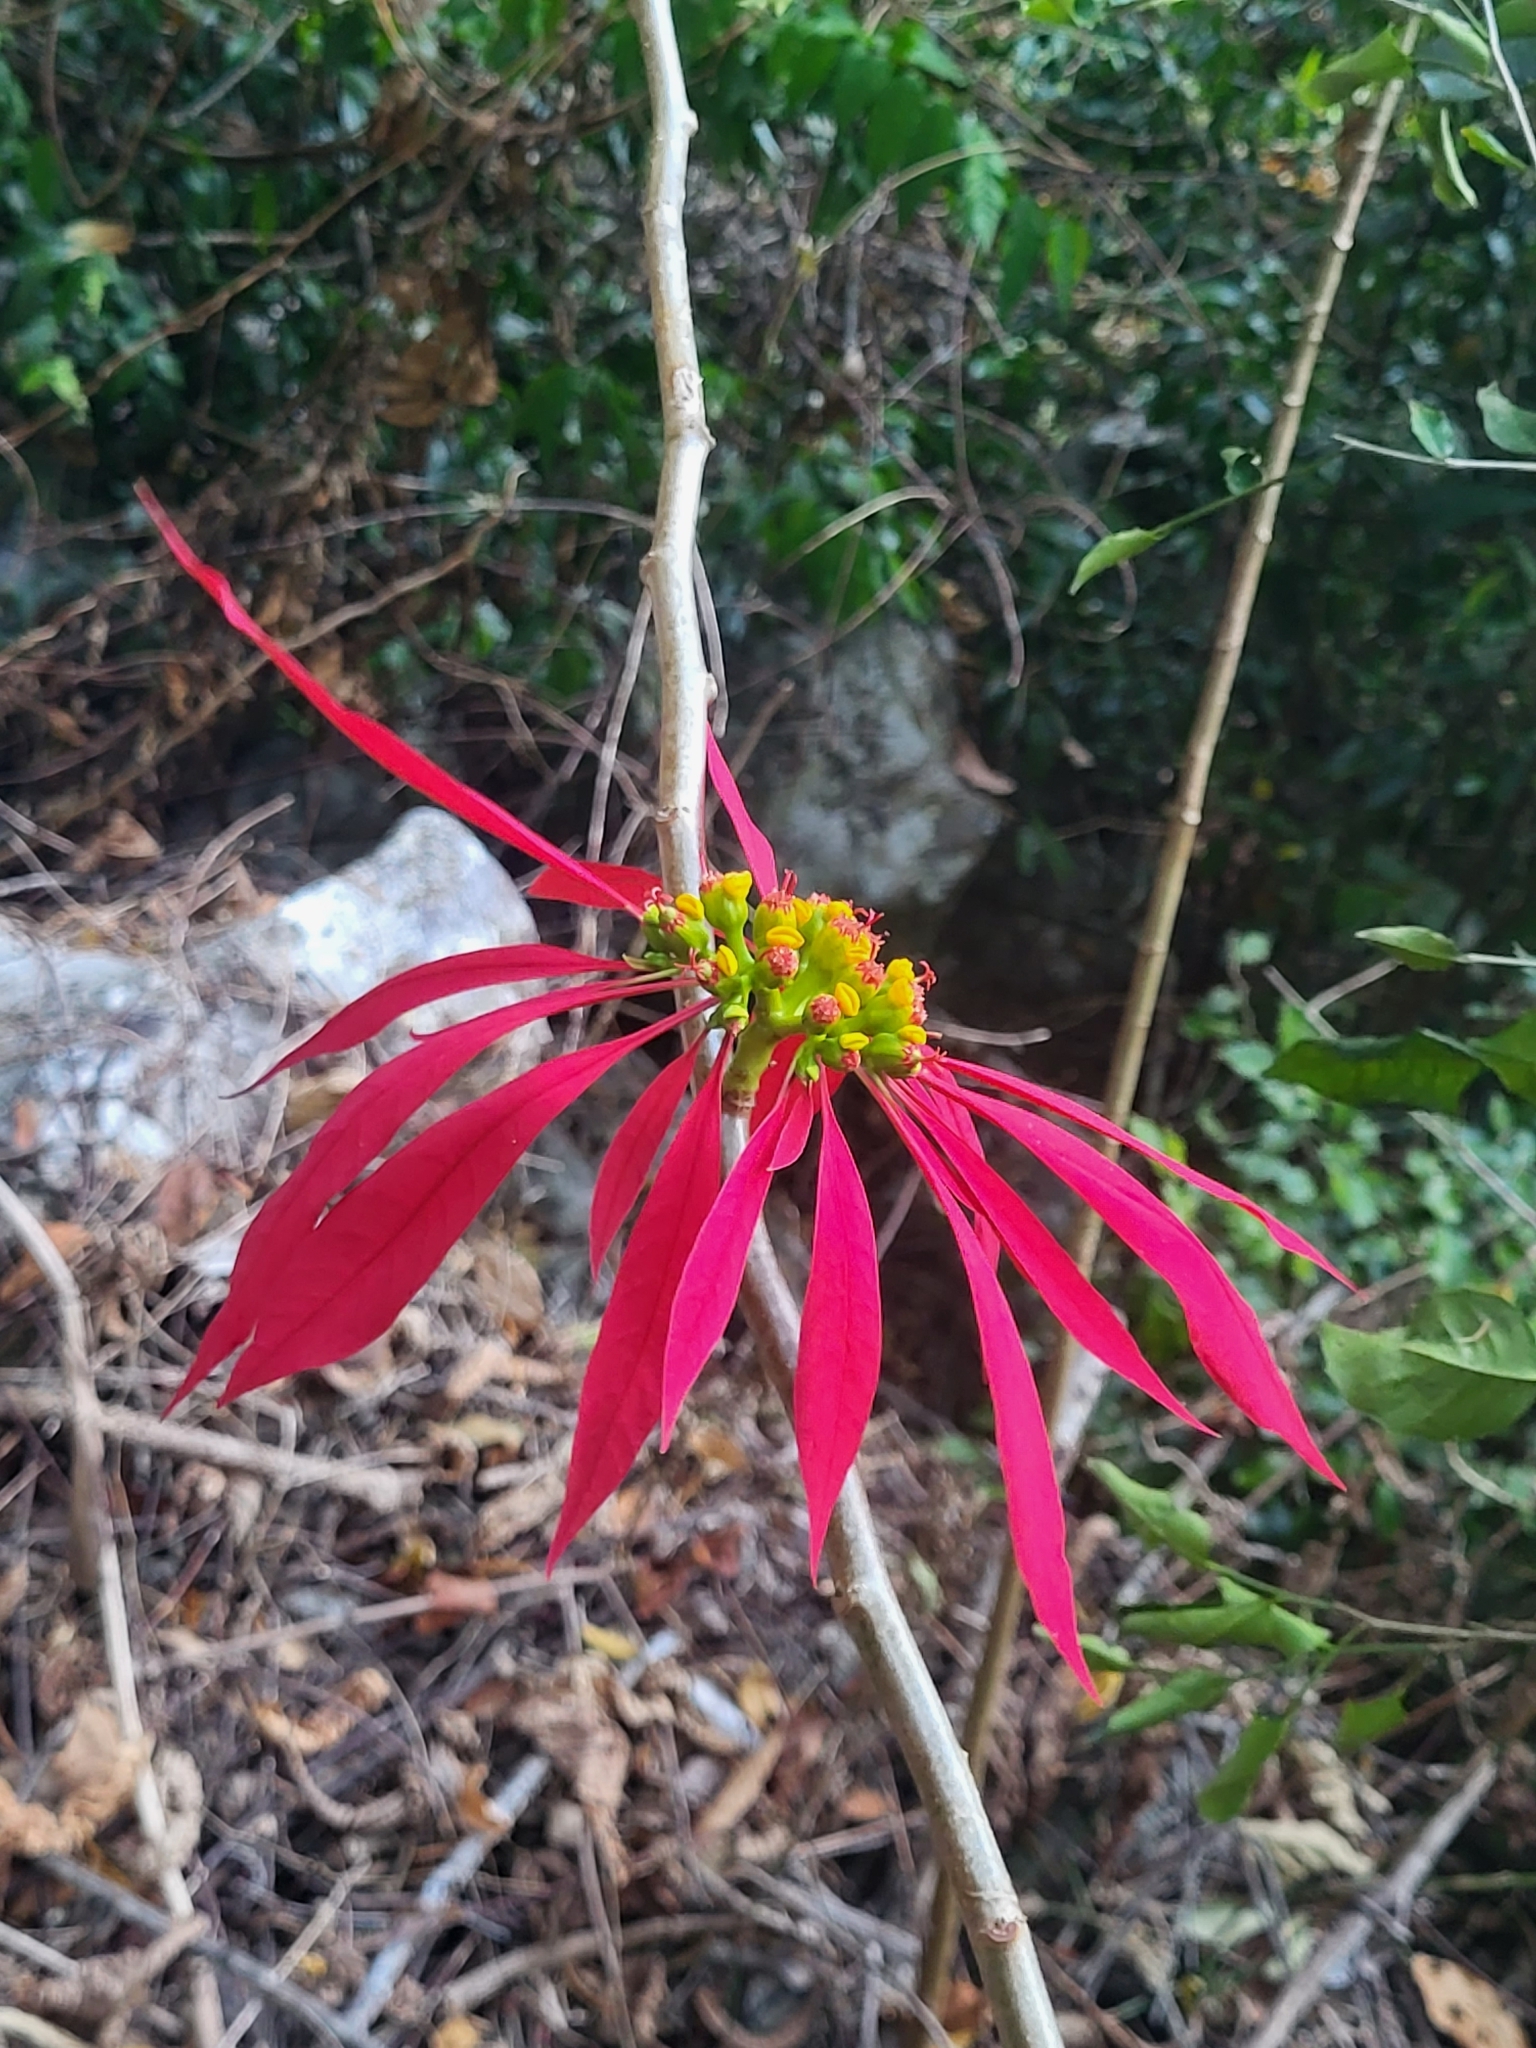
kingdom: Plantae
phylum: Tracheophyta
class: Magnoliopsida
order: Malpighiales
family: Euphorbiaceae
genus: Euphorbia
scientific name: Euphorbia pulcherrima
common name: Christmas-flower
